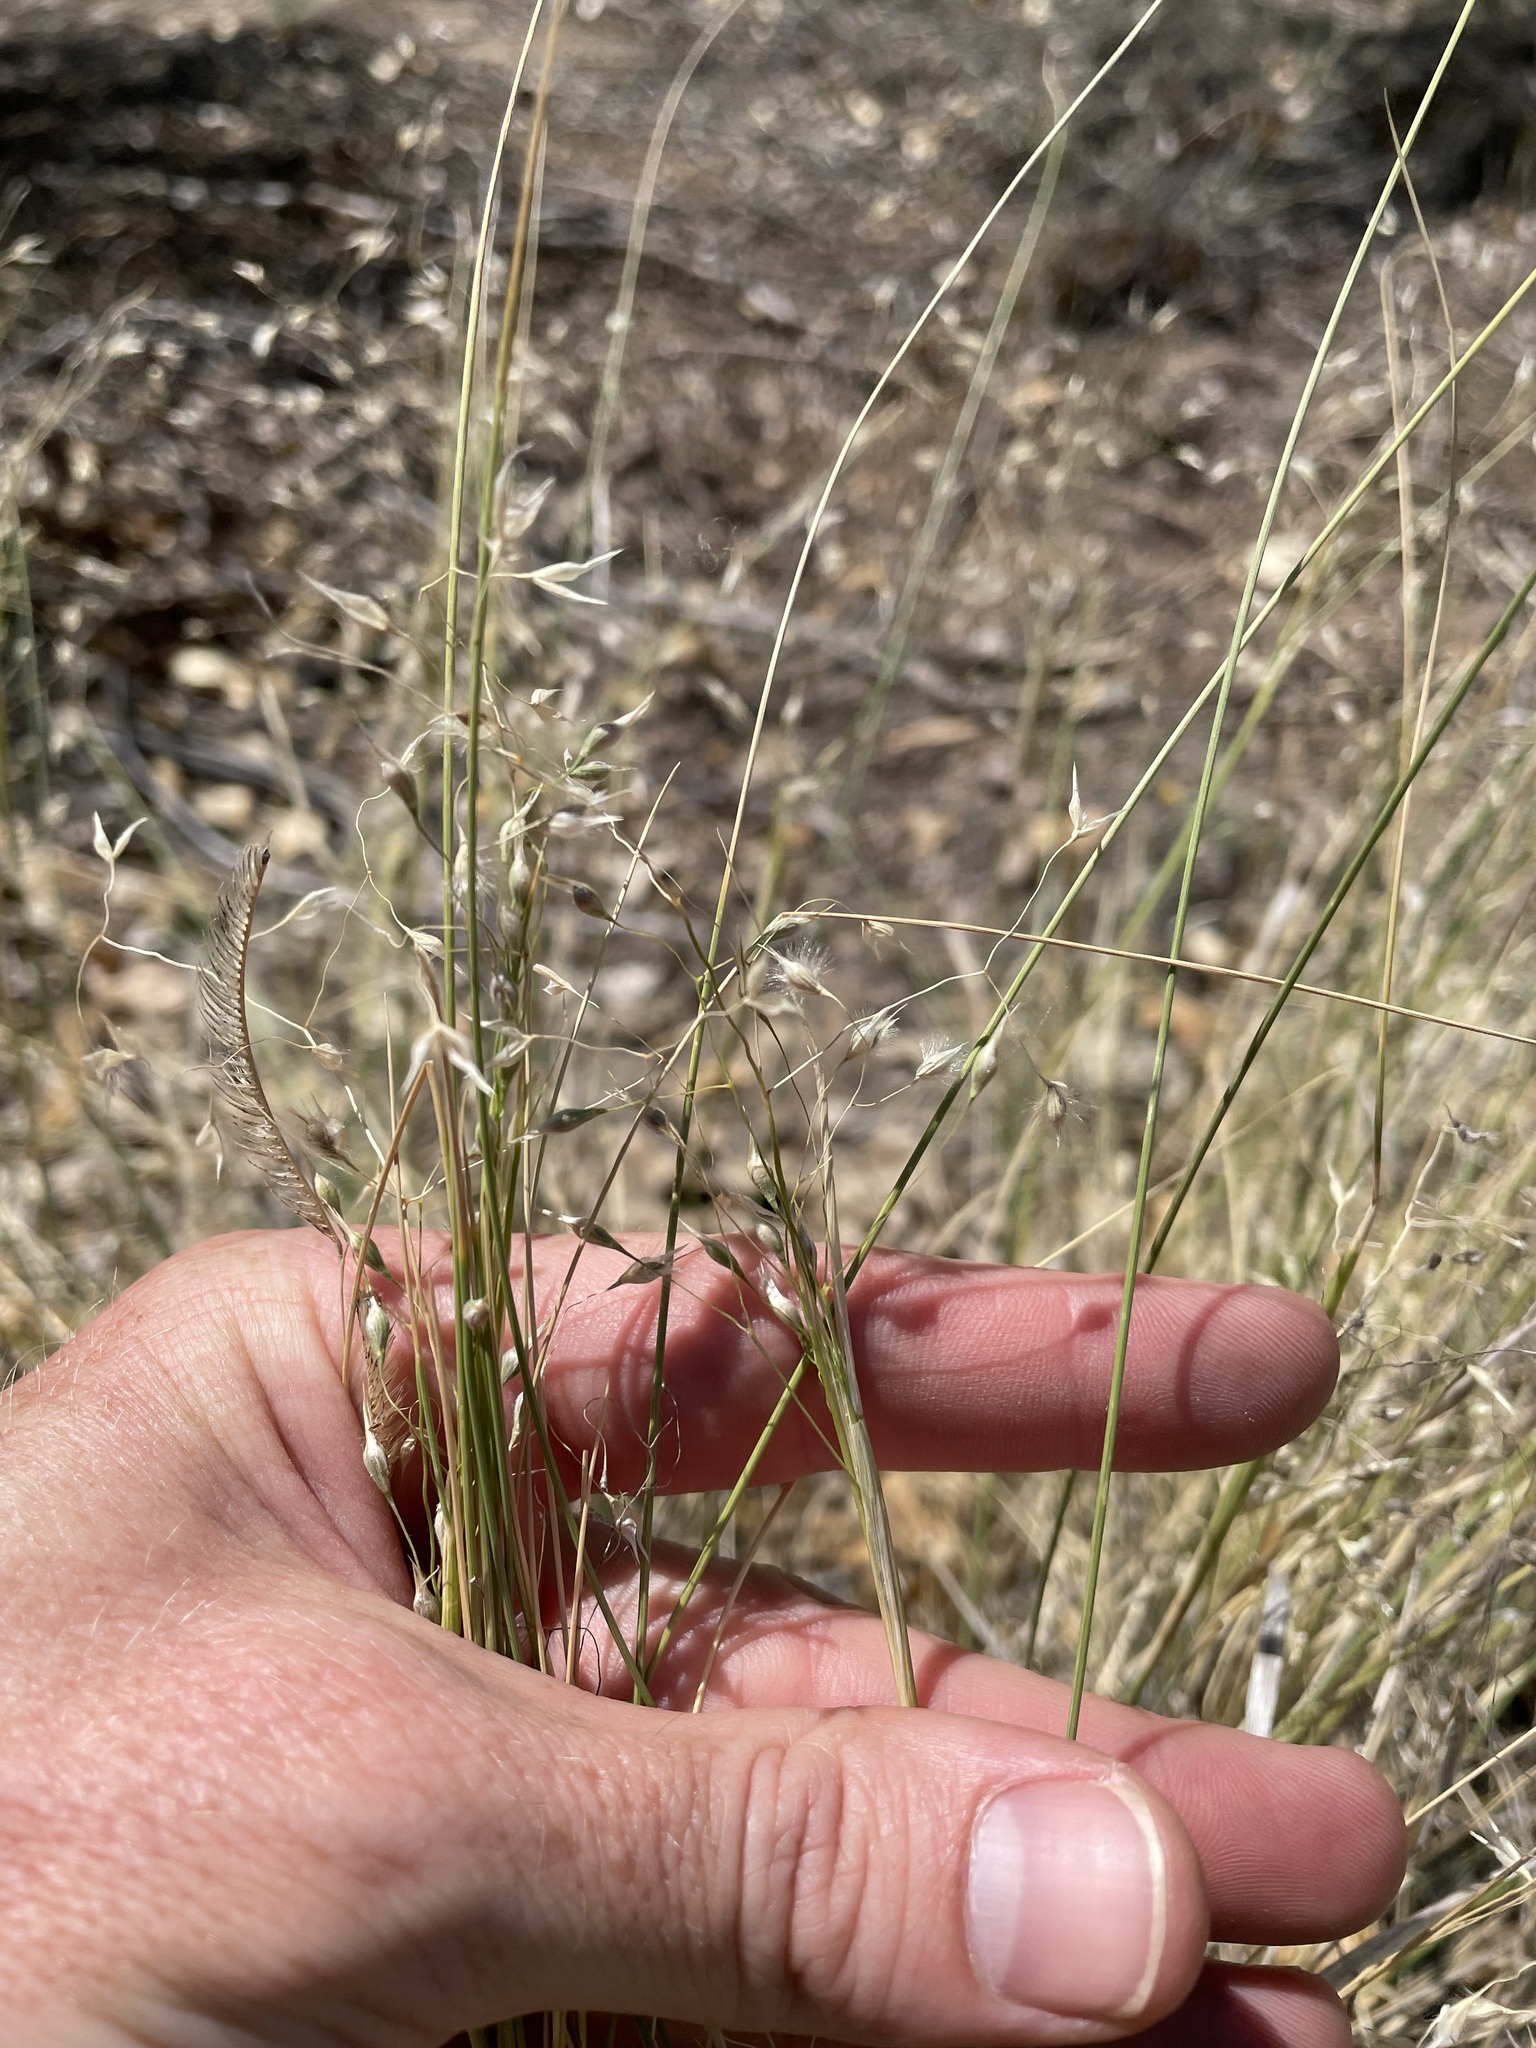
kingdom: Plantae
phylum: Tracheophyta
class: Liliopsida
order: Poales
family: Poaceae
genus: Eriocoma
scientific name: Eriocoma hymenoides
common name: Indian mountain ricegrass
